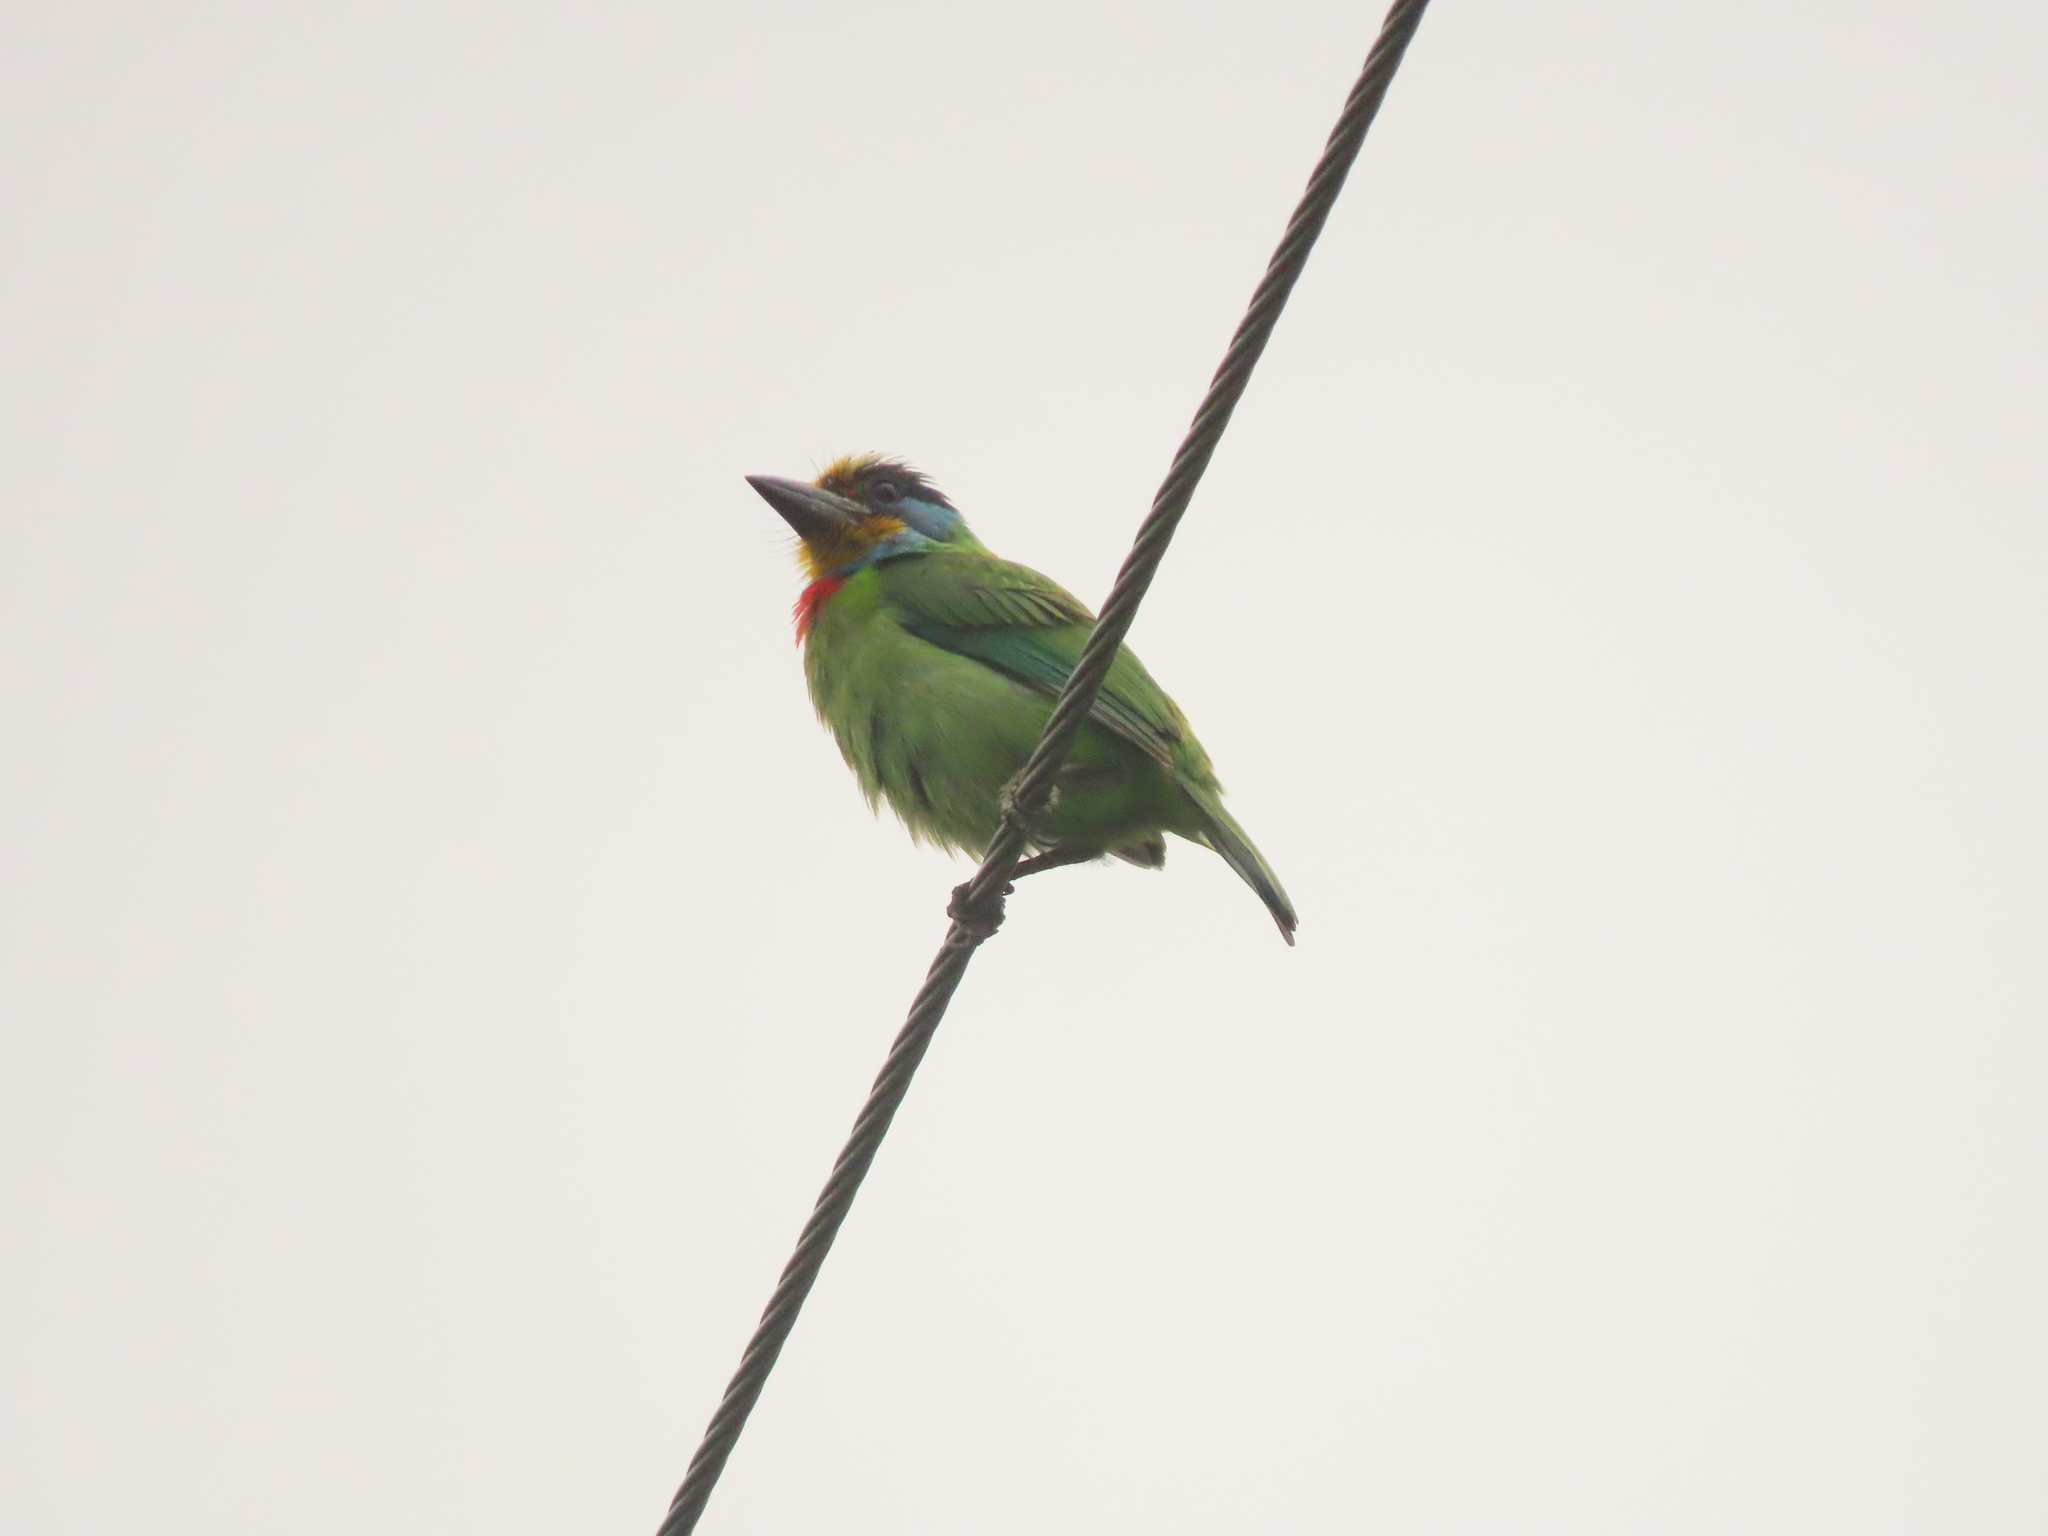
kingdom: Animalia
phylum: Chordata
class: Aves
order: Piciformes
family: Megalaimidae
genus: Psilopogon
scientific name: Psilopogon nuchalis
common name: Taiwan barbet
